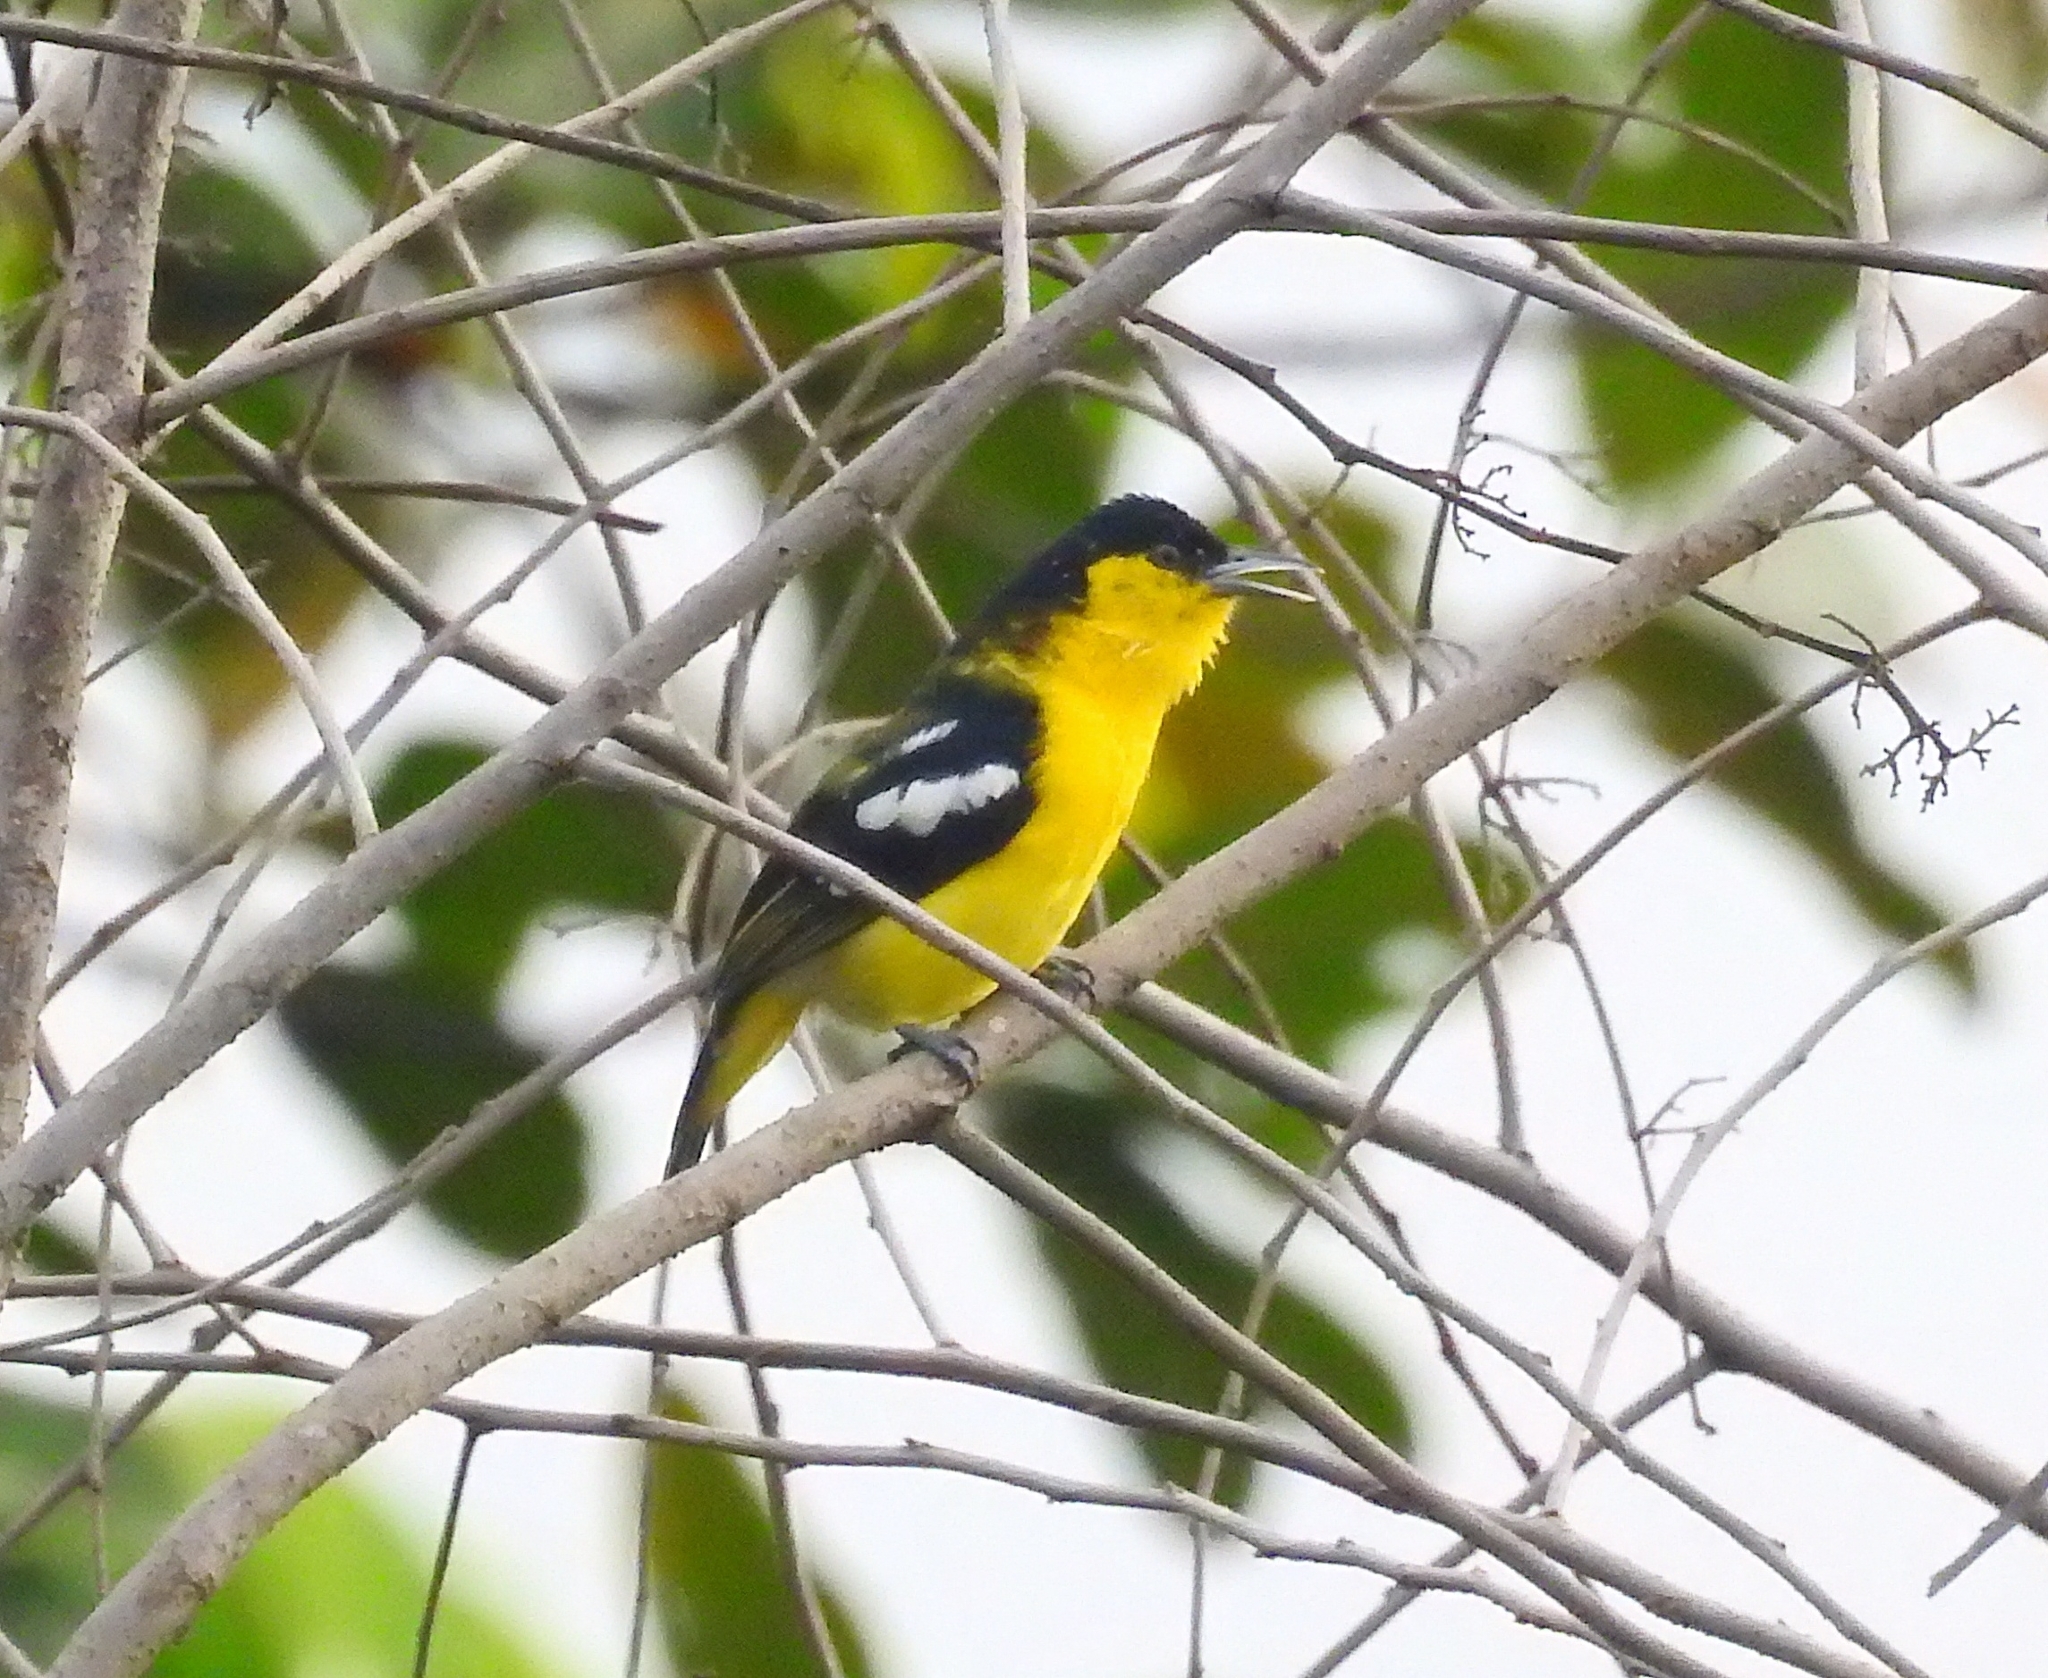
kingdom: Animalia
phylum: Chordata
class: Aves
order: Passeriformes
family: Aegithinidae
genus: Aegithina
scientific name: Aegithina tiphia
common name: Common iora
